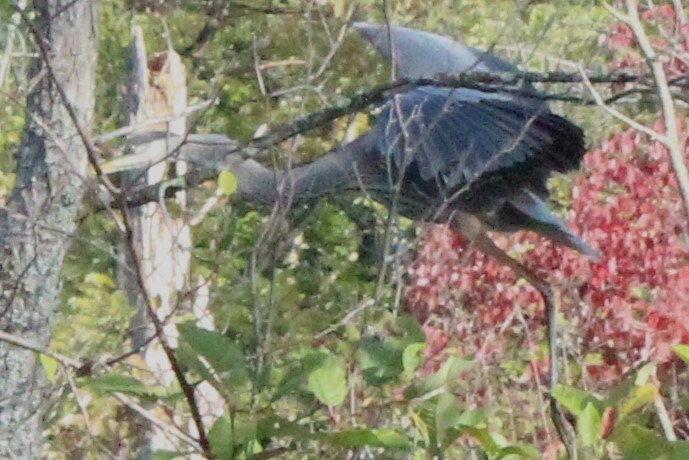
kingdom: Animalia
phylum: Chordata
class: Aves
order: Pelecaniformes
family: Ardeidae
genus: Ardea
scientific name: Ardea herodias
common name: Great blue heron
